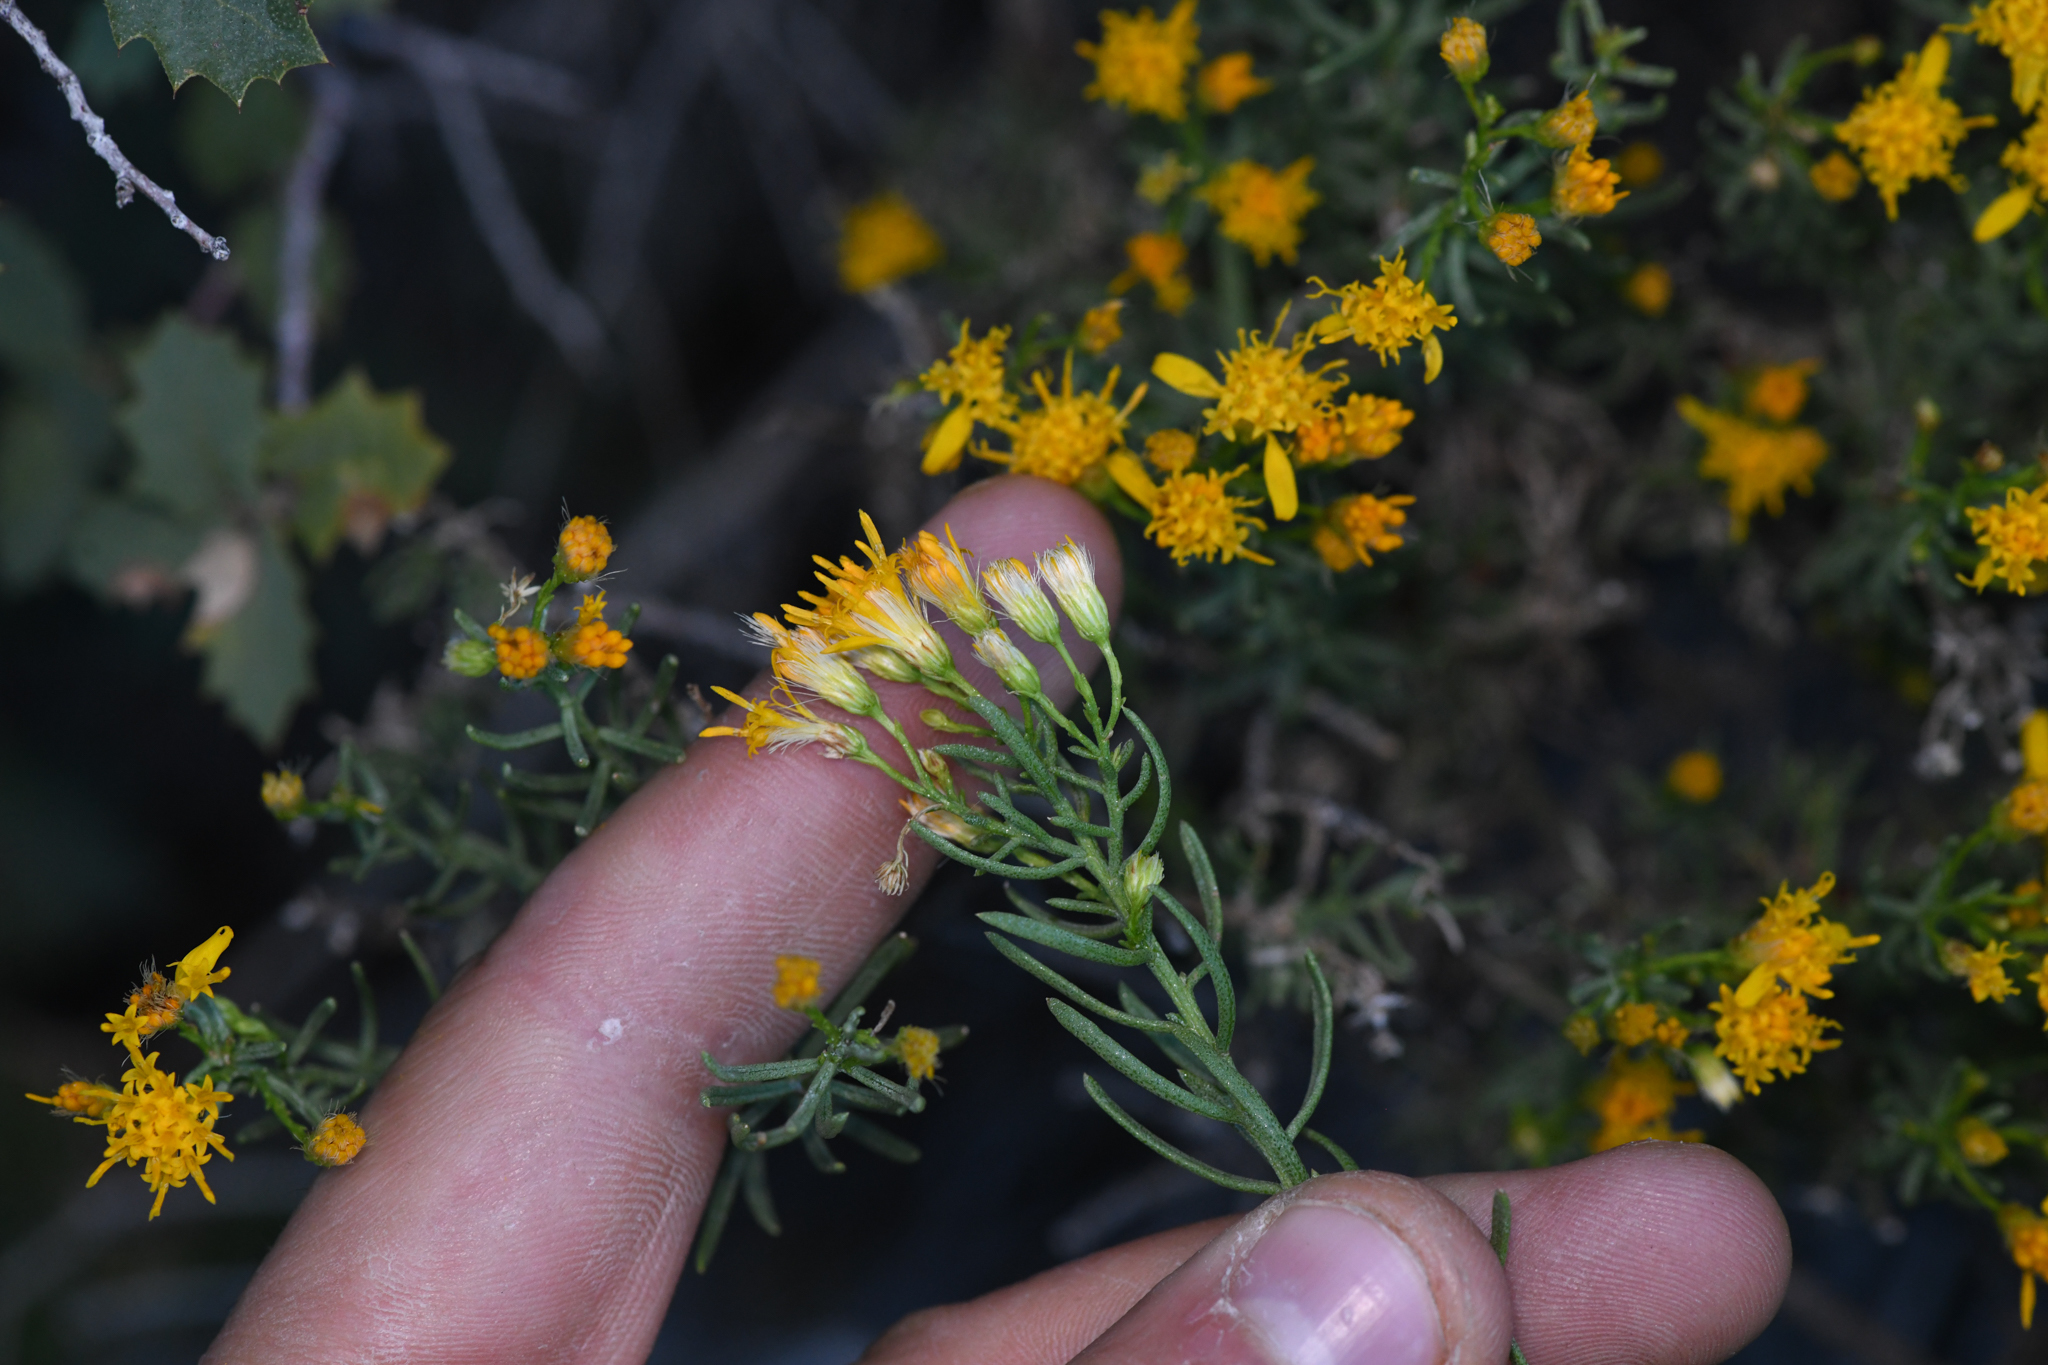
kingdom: Plantae
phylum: Tracheophyta
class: Magnoliopsida
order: Asterales
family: Asteraceae
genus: Ericameria
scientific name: Ericameria laricifolia
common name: Turpentine-bush
